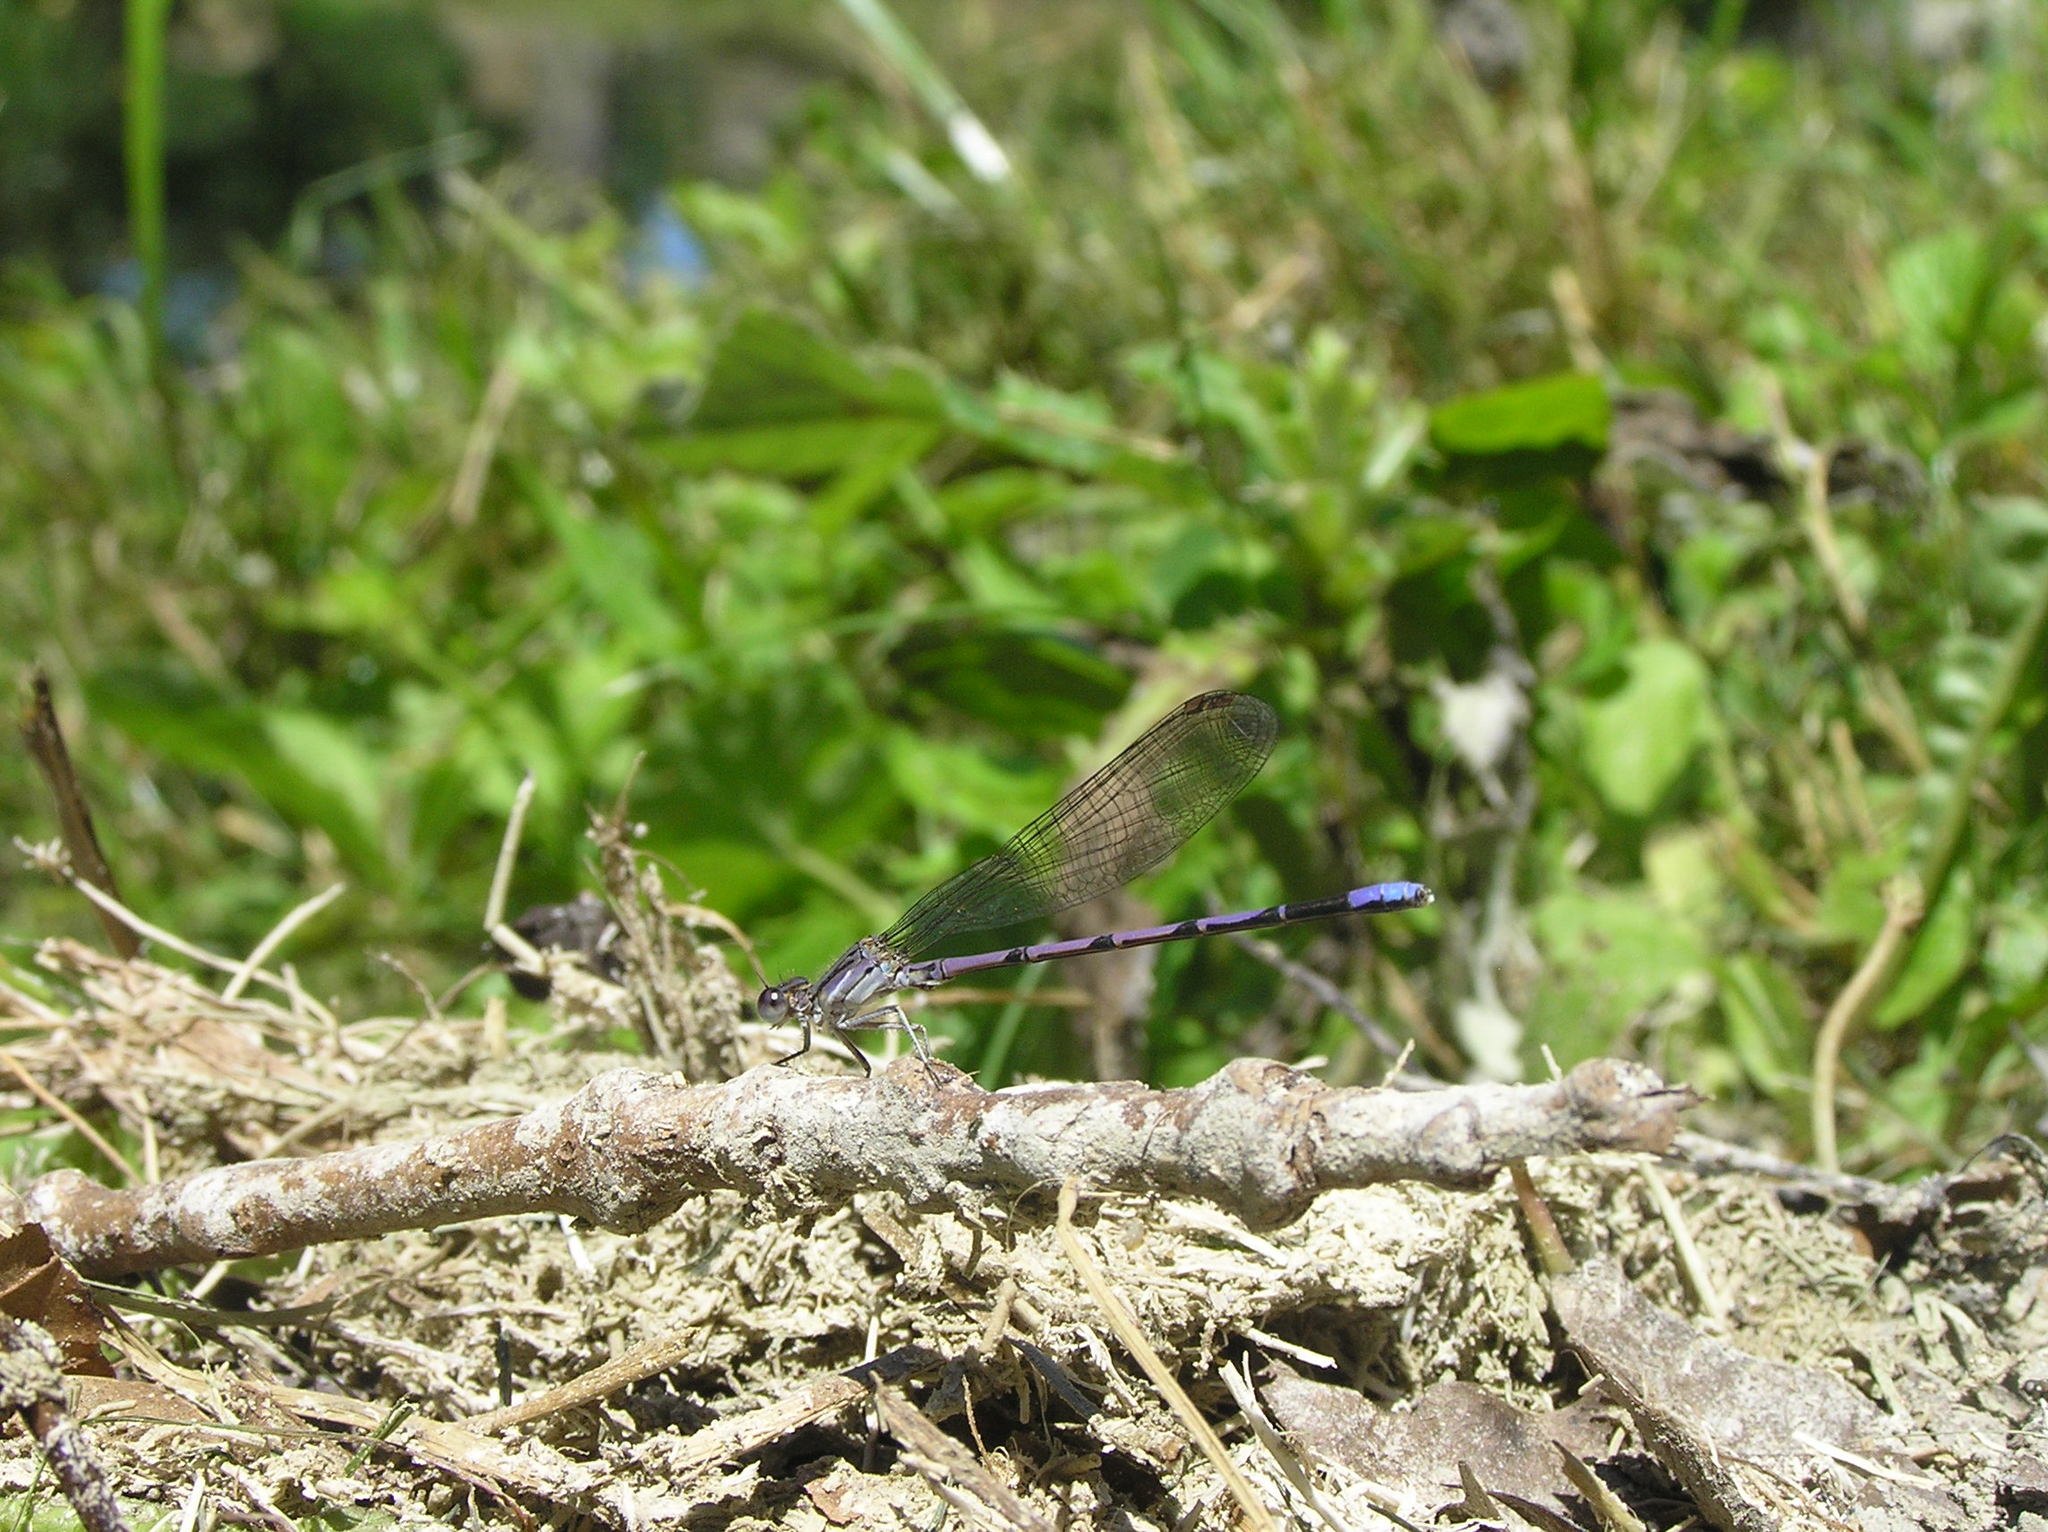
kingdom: Animalia
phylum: Arthropoda
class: Insecta
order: Odonata
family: Coenagrionidae
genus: Argia
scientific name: Argia fumipennis
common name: Variable dancer
